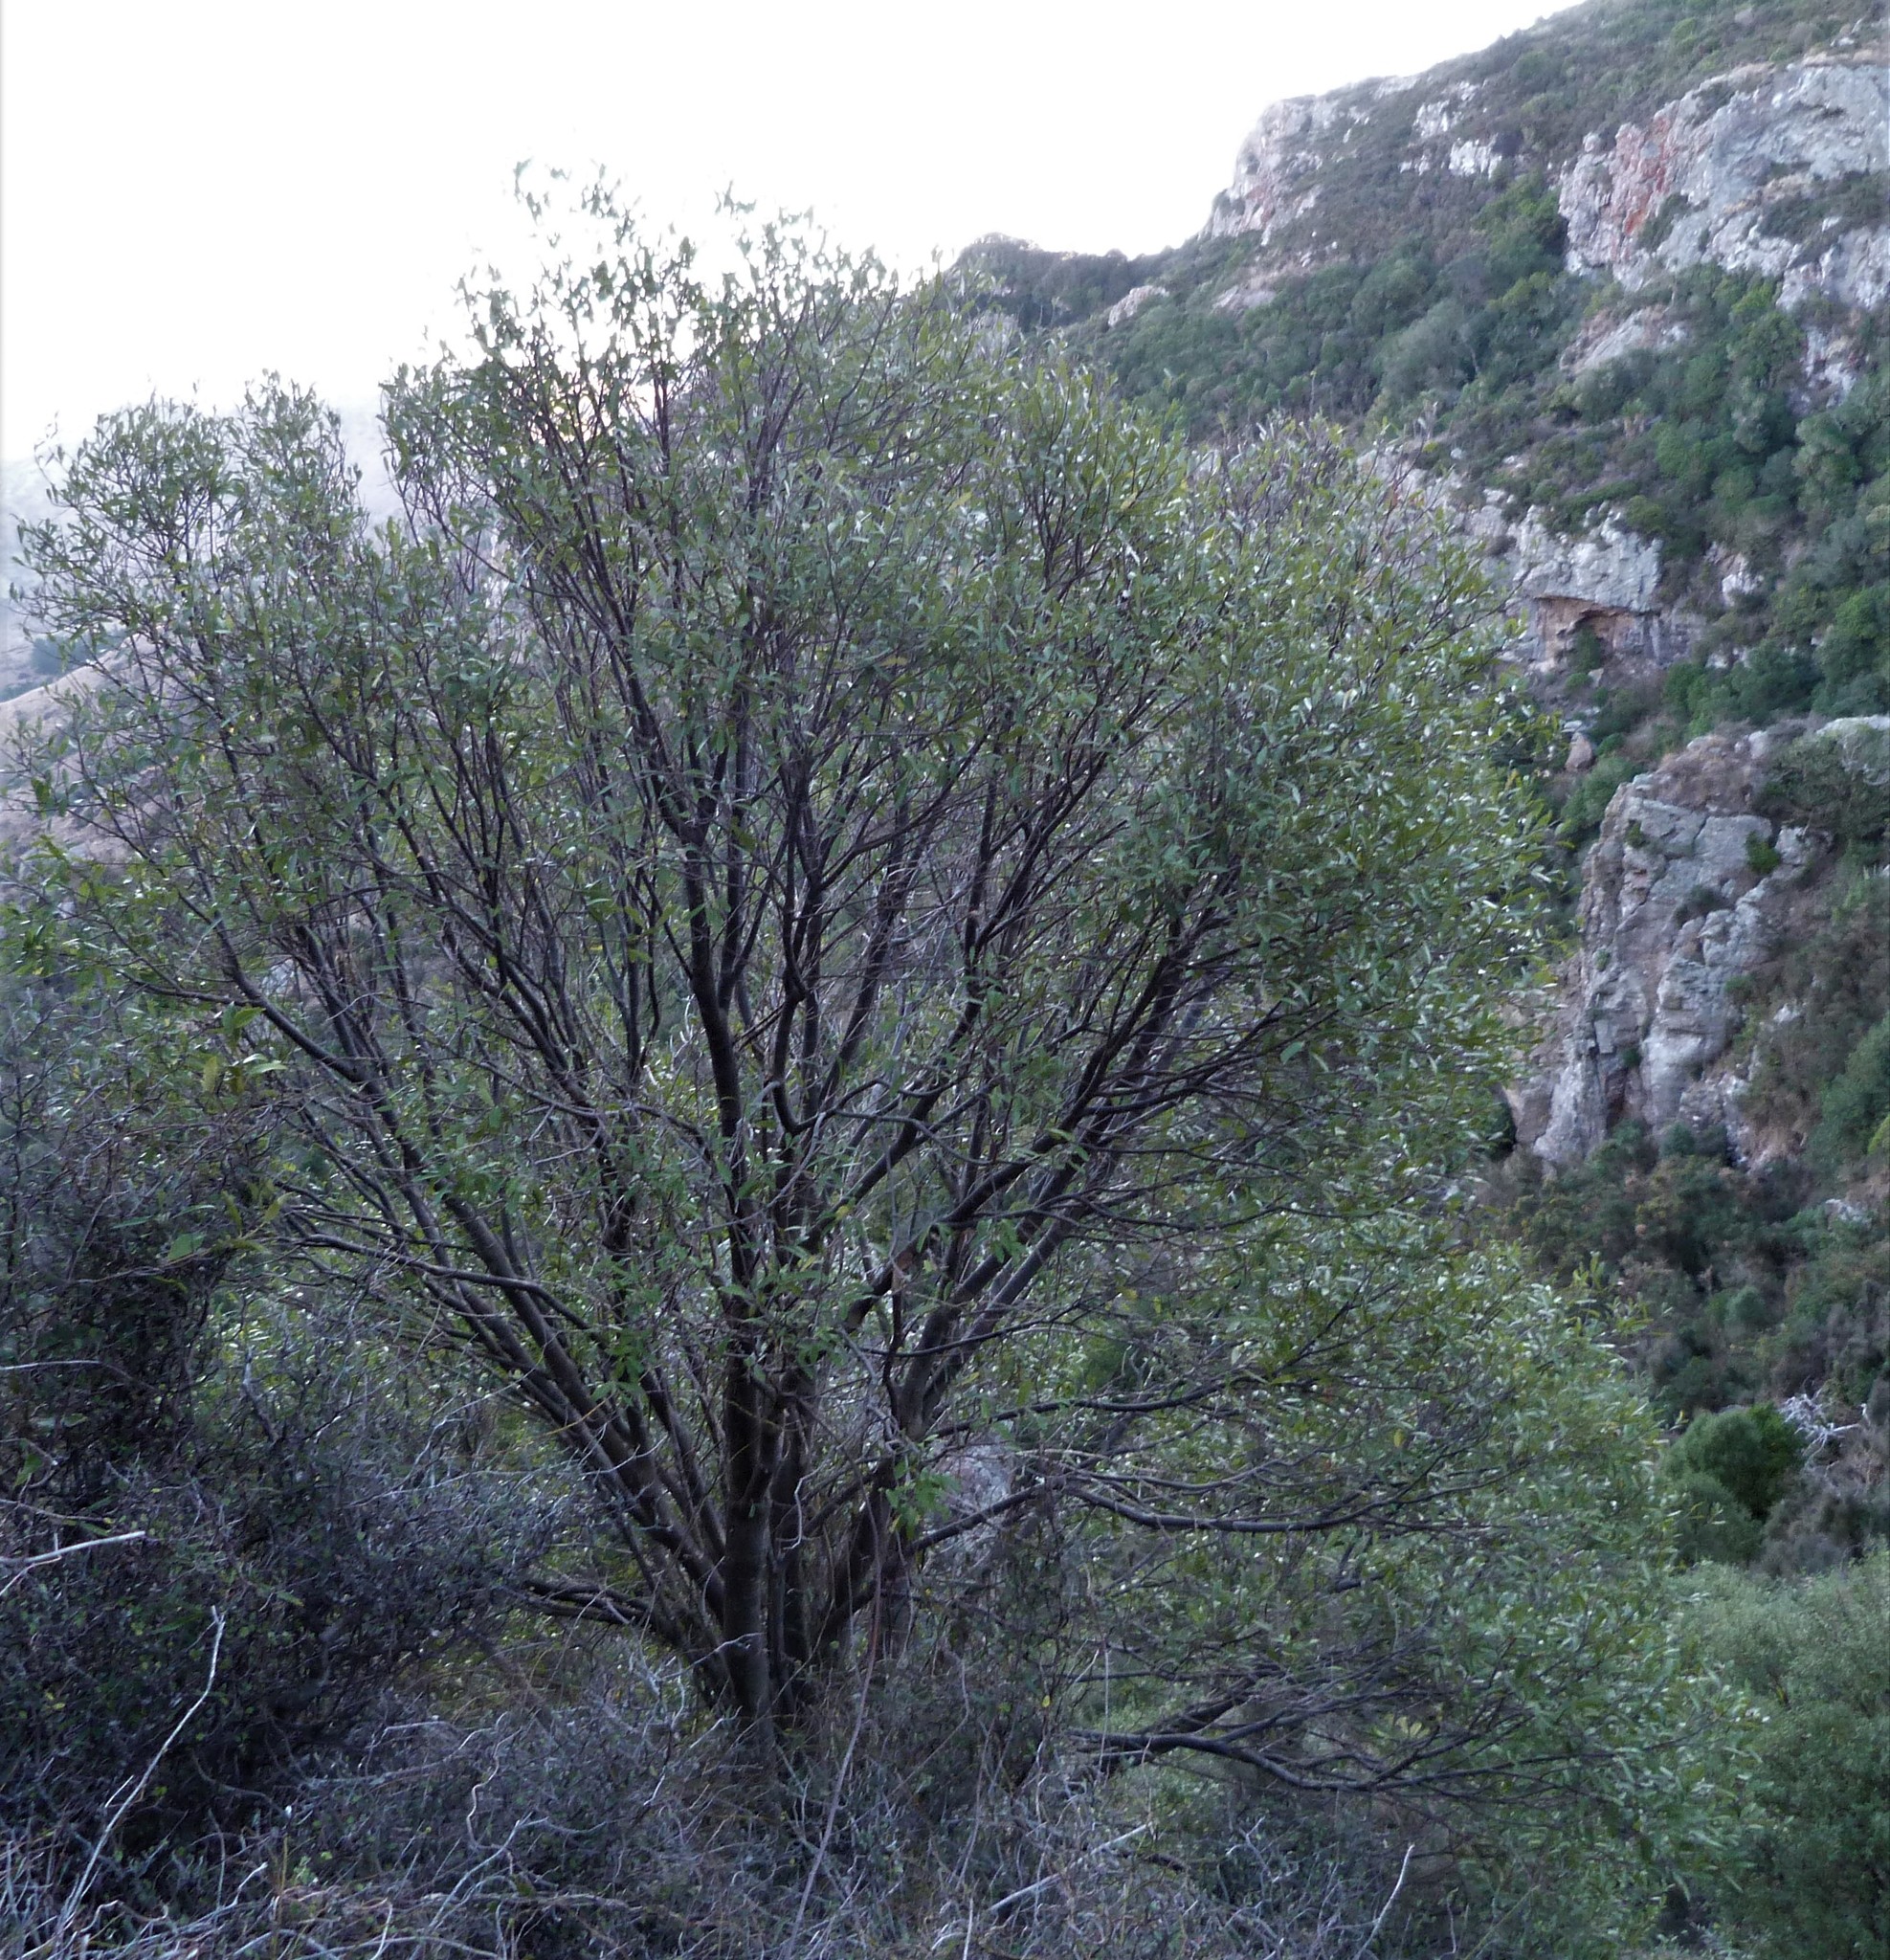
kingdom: Plantae
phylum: Tracheophyta
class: Magnoliopsida
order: Malvales
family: Malvaceae
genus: Hoheria
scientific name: Hoheria angustifolia
